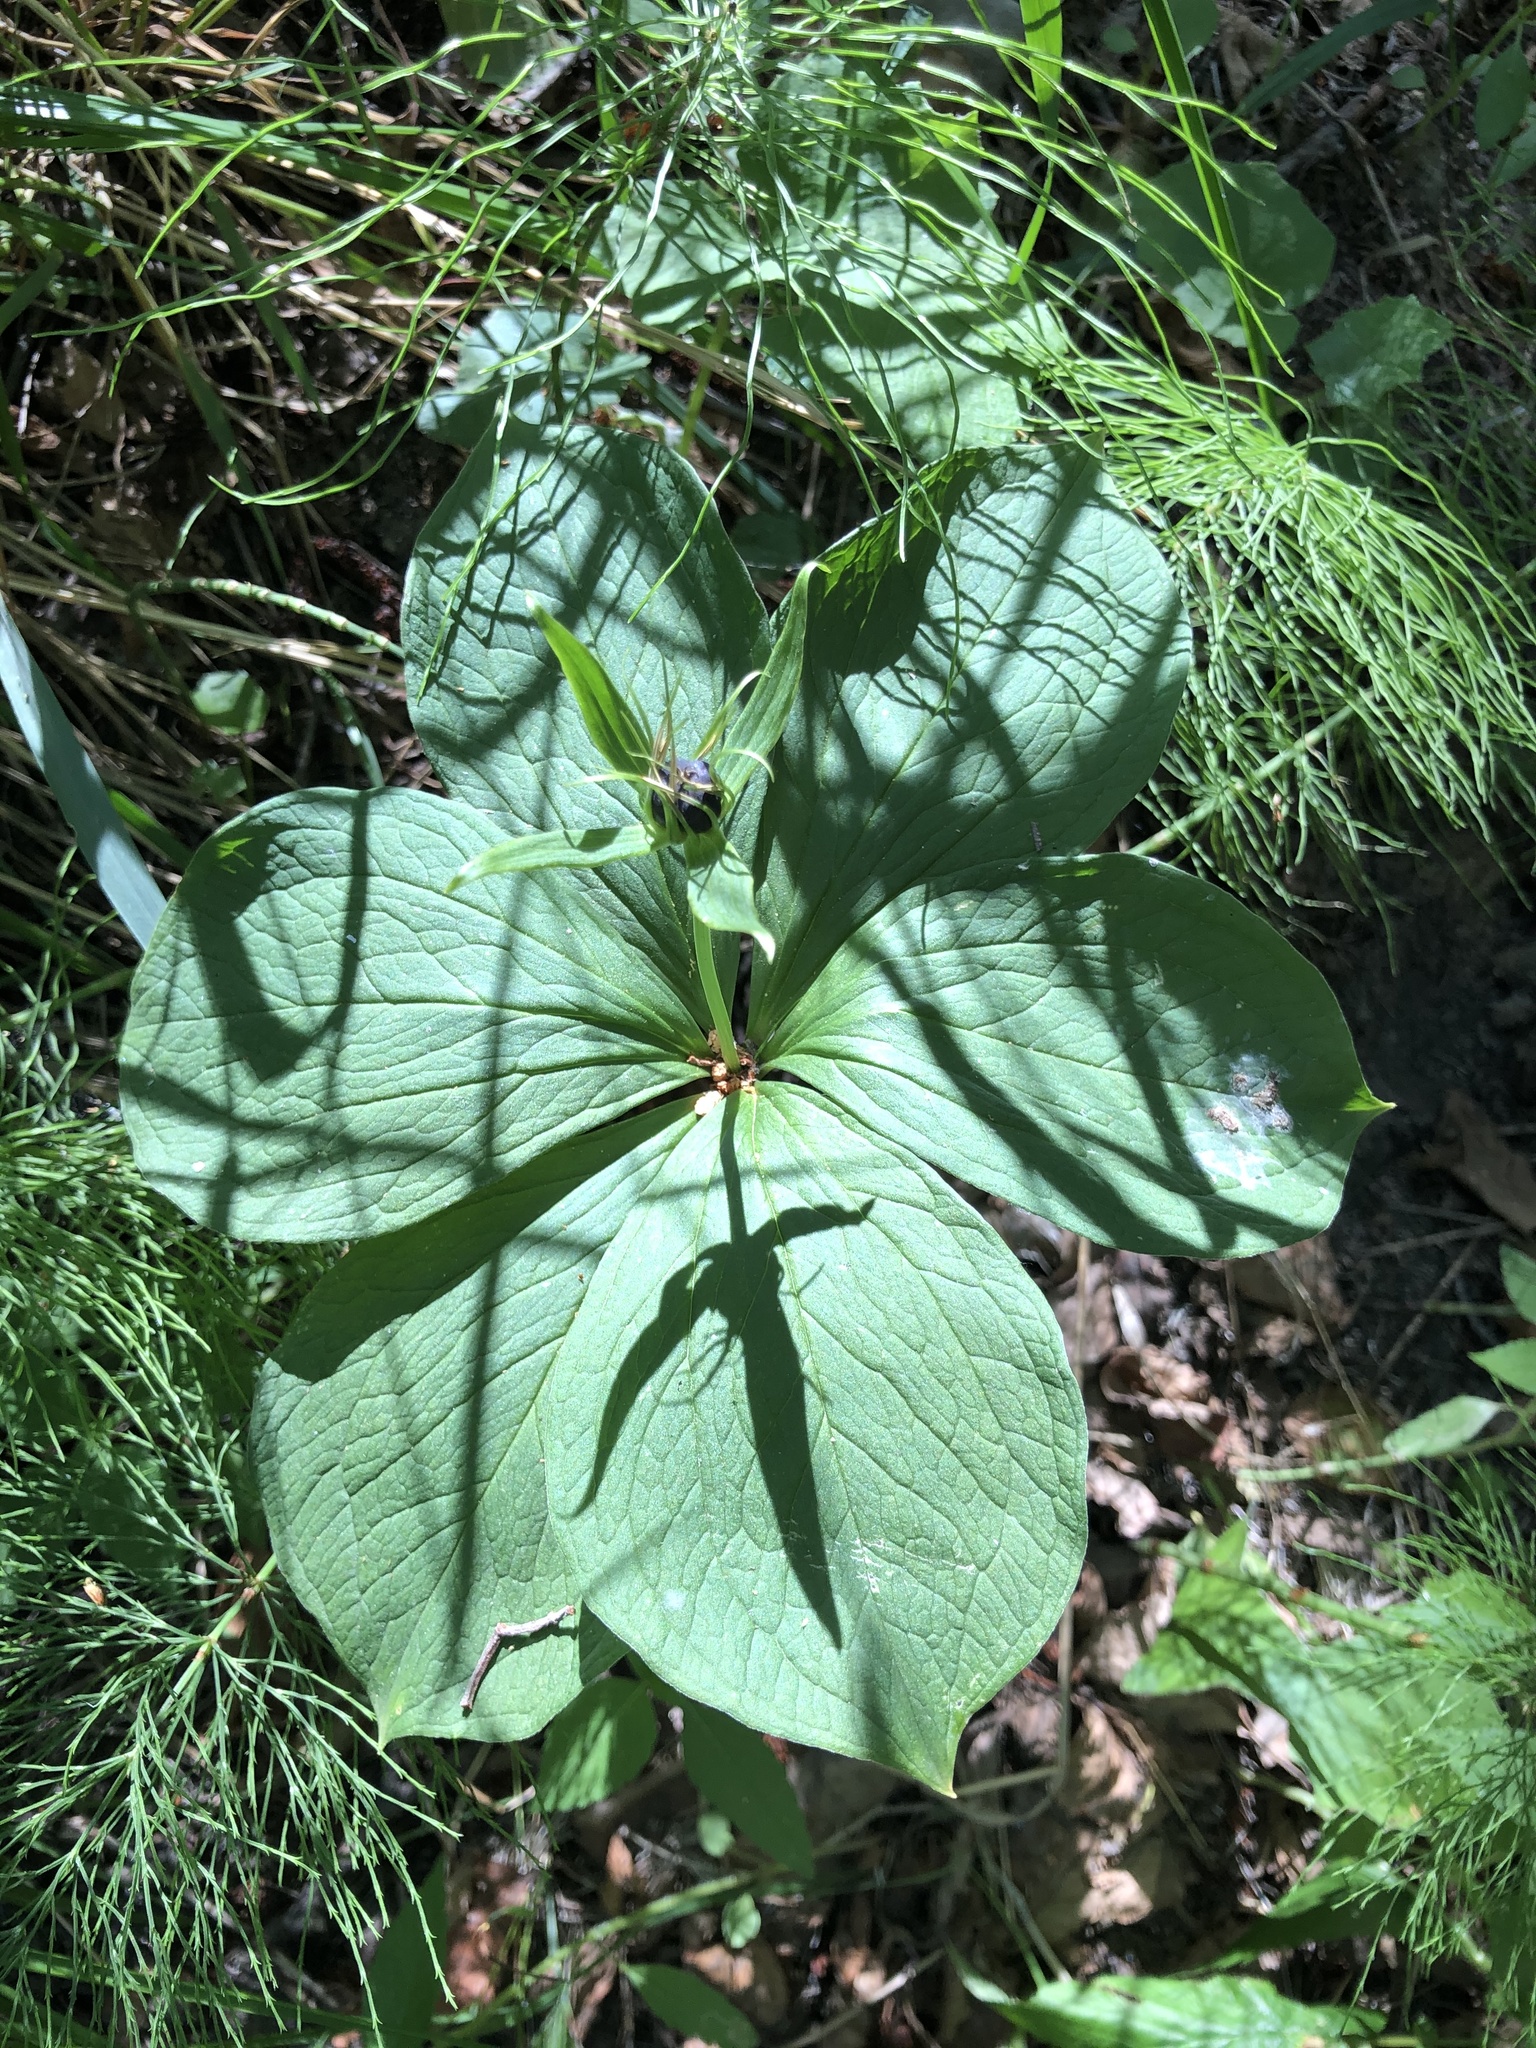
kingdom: Plantae
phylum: Tracheophyta
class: Liliopsida
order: Liliales
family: Melanthiaceae
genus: Paris
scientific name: Paris quadrifolia
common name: Herb-paris
